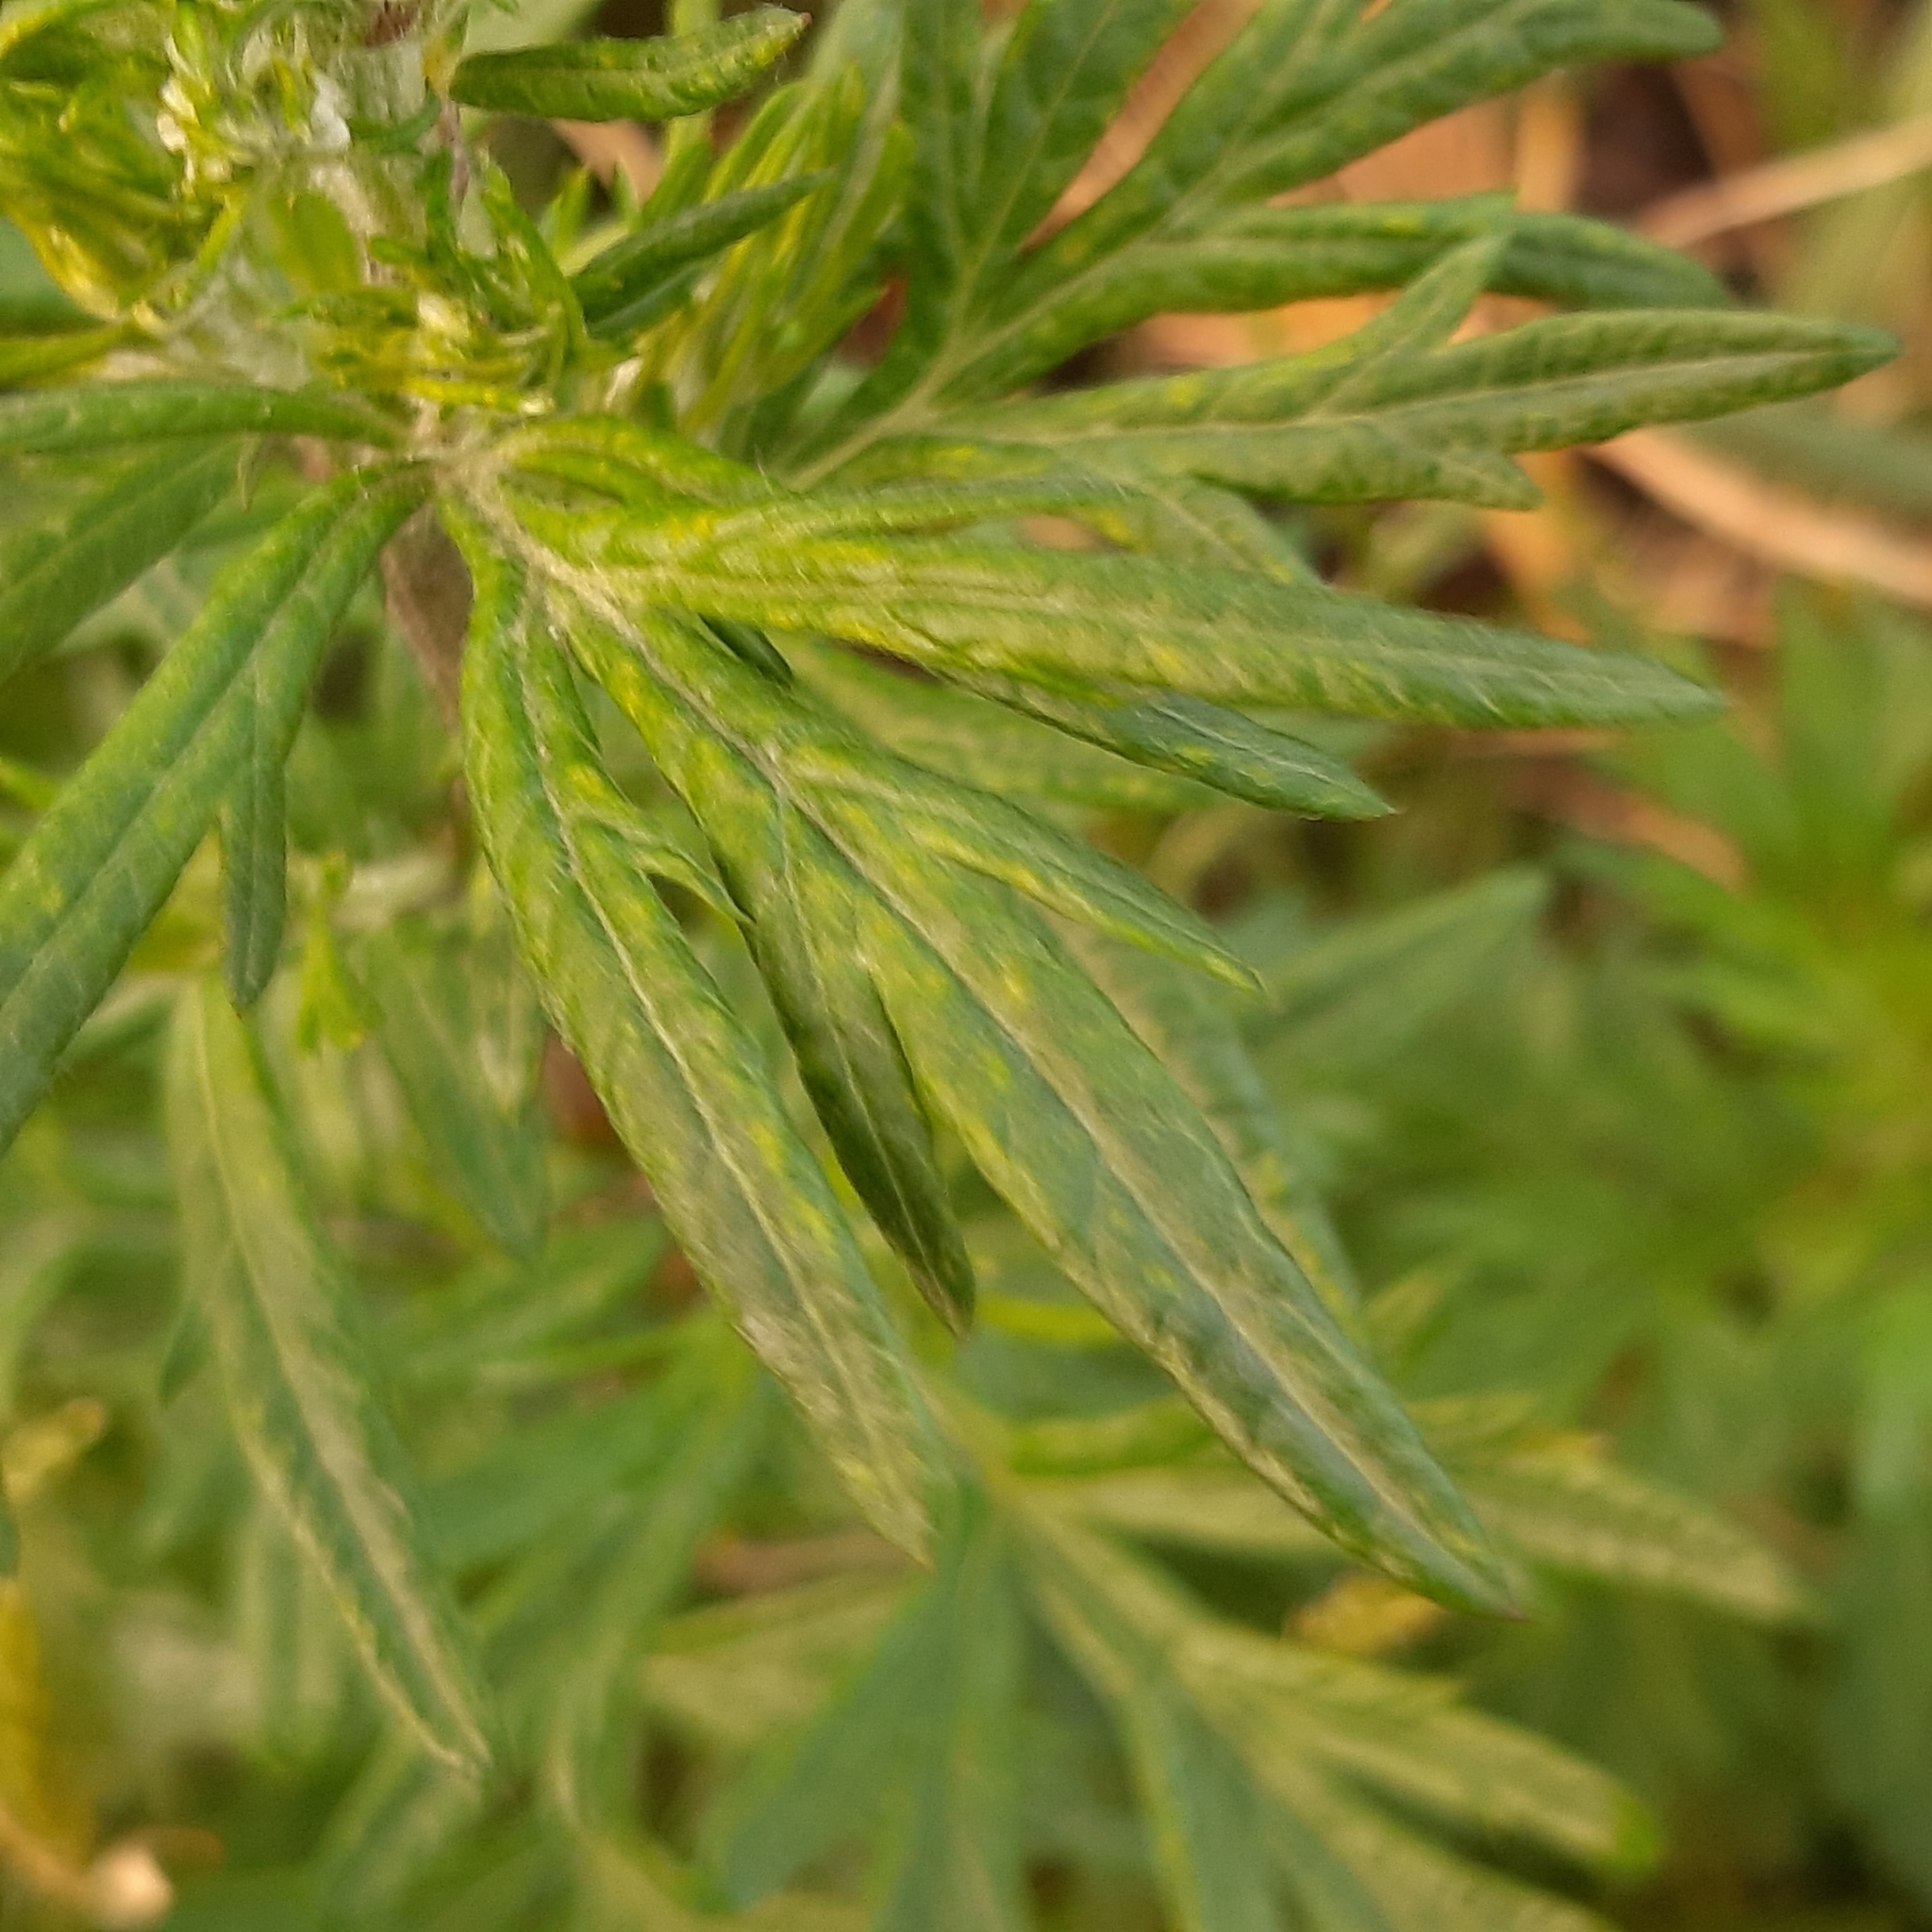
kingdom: Plantae
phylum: Tracheophyta
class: Magnoliopsida
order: Asterales
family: Asteraceae
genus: Artemisia
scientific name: Artemisia vulgaris
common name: Mugwort
